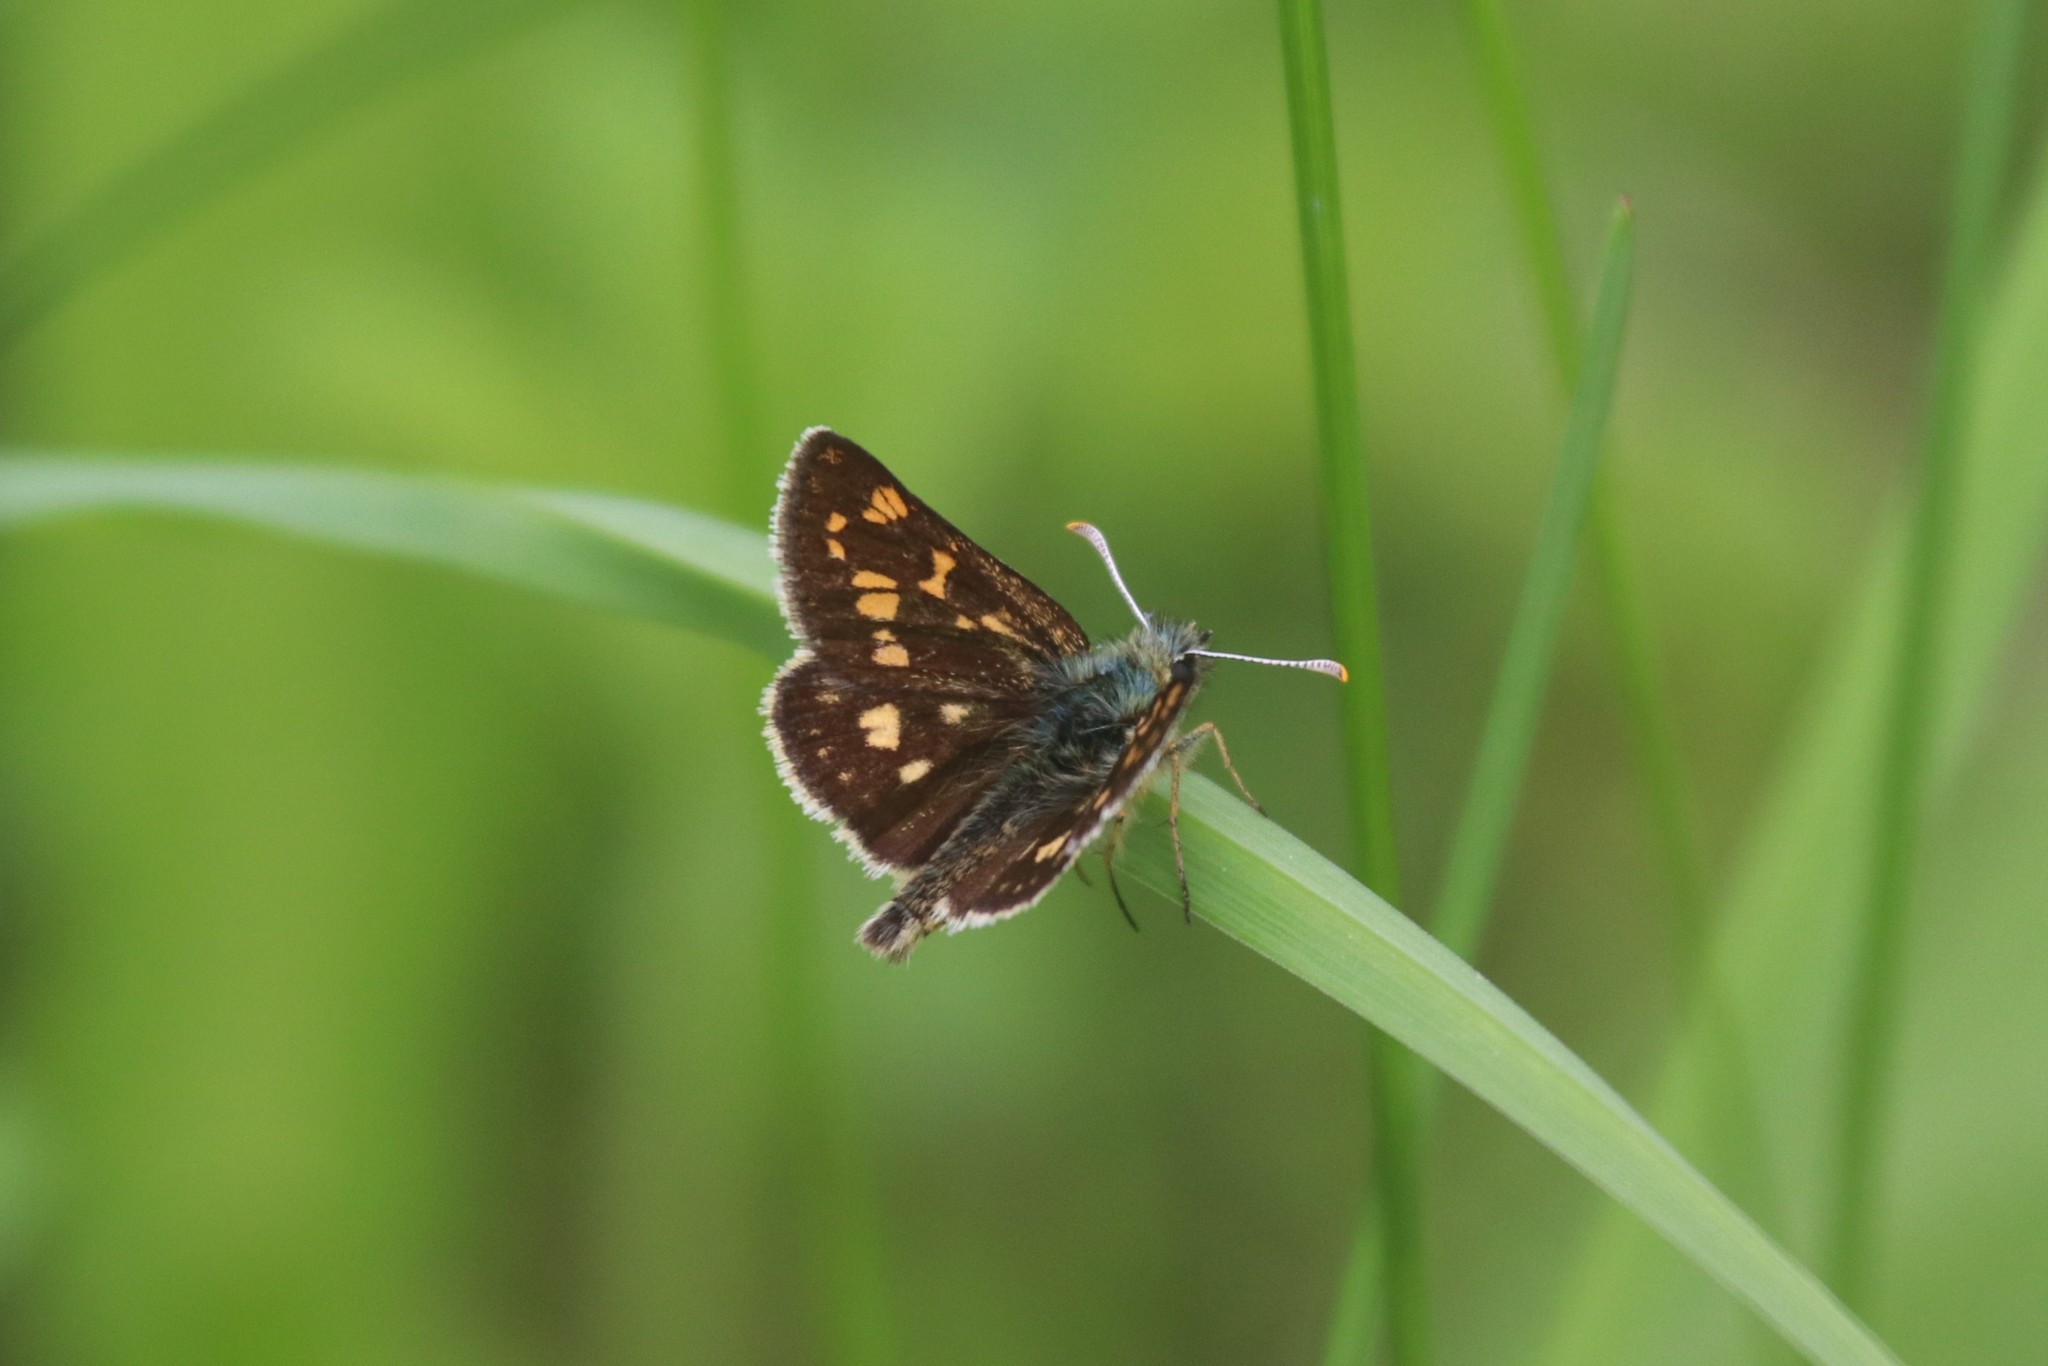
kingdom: Animalia
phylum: Arthropoda
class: Insecta
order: Lepidoptera
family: Hesperiidae
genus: Carterocephalus
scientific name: Carterocephalus palaemon
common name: Chequered skipper
